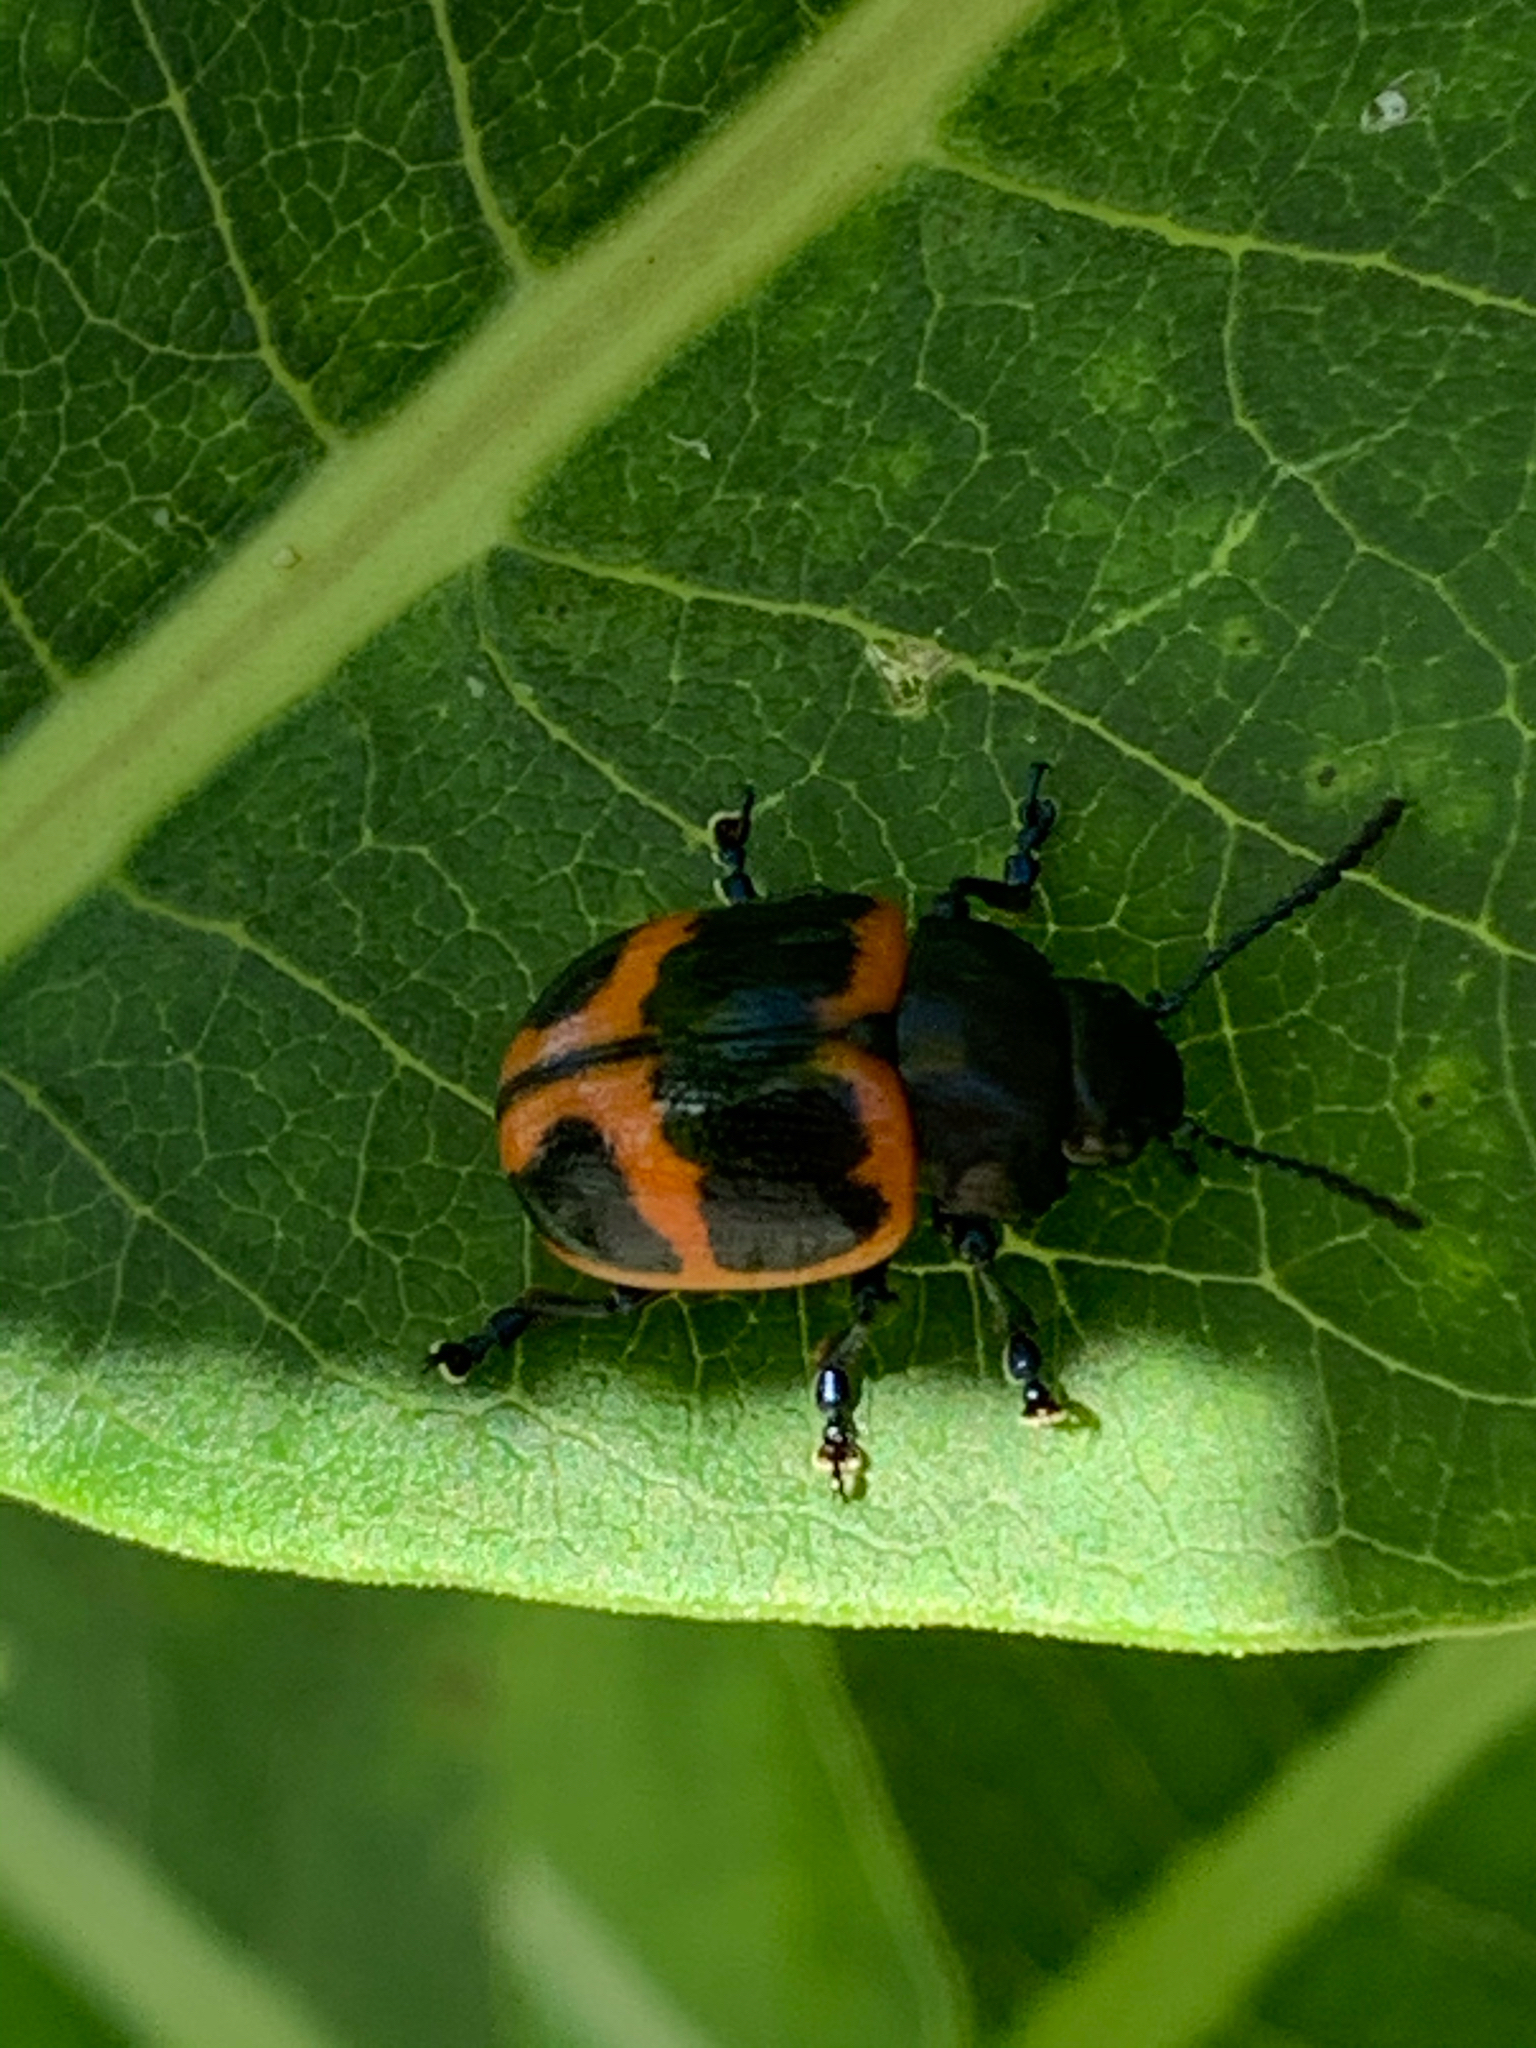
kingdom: Animalia
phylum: Arthropoda
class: Insecta
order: Coleoptera
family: Chrysomelidae
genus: Labidomera
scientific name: Labidomera clivicollis
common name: Swamp milkweed leaf beetle
